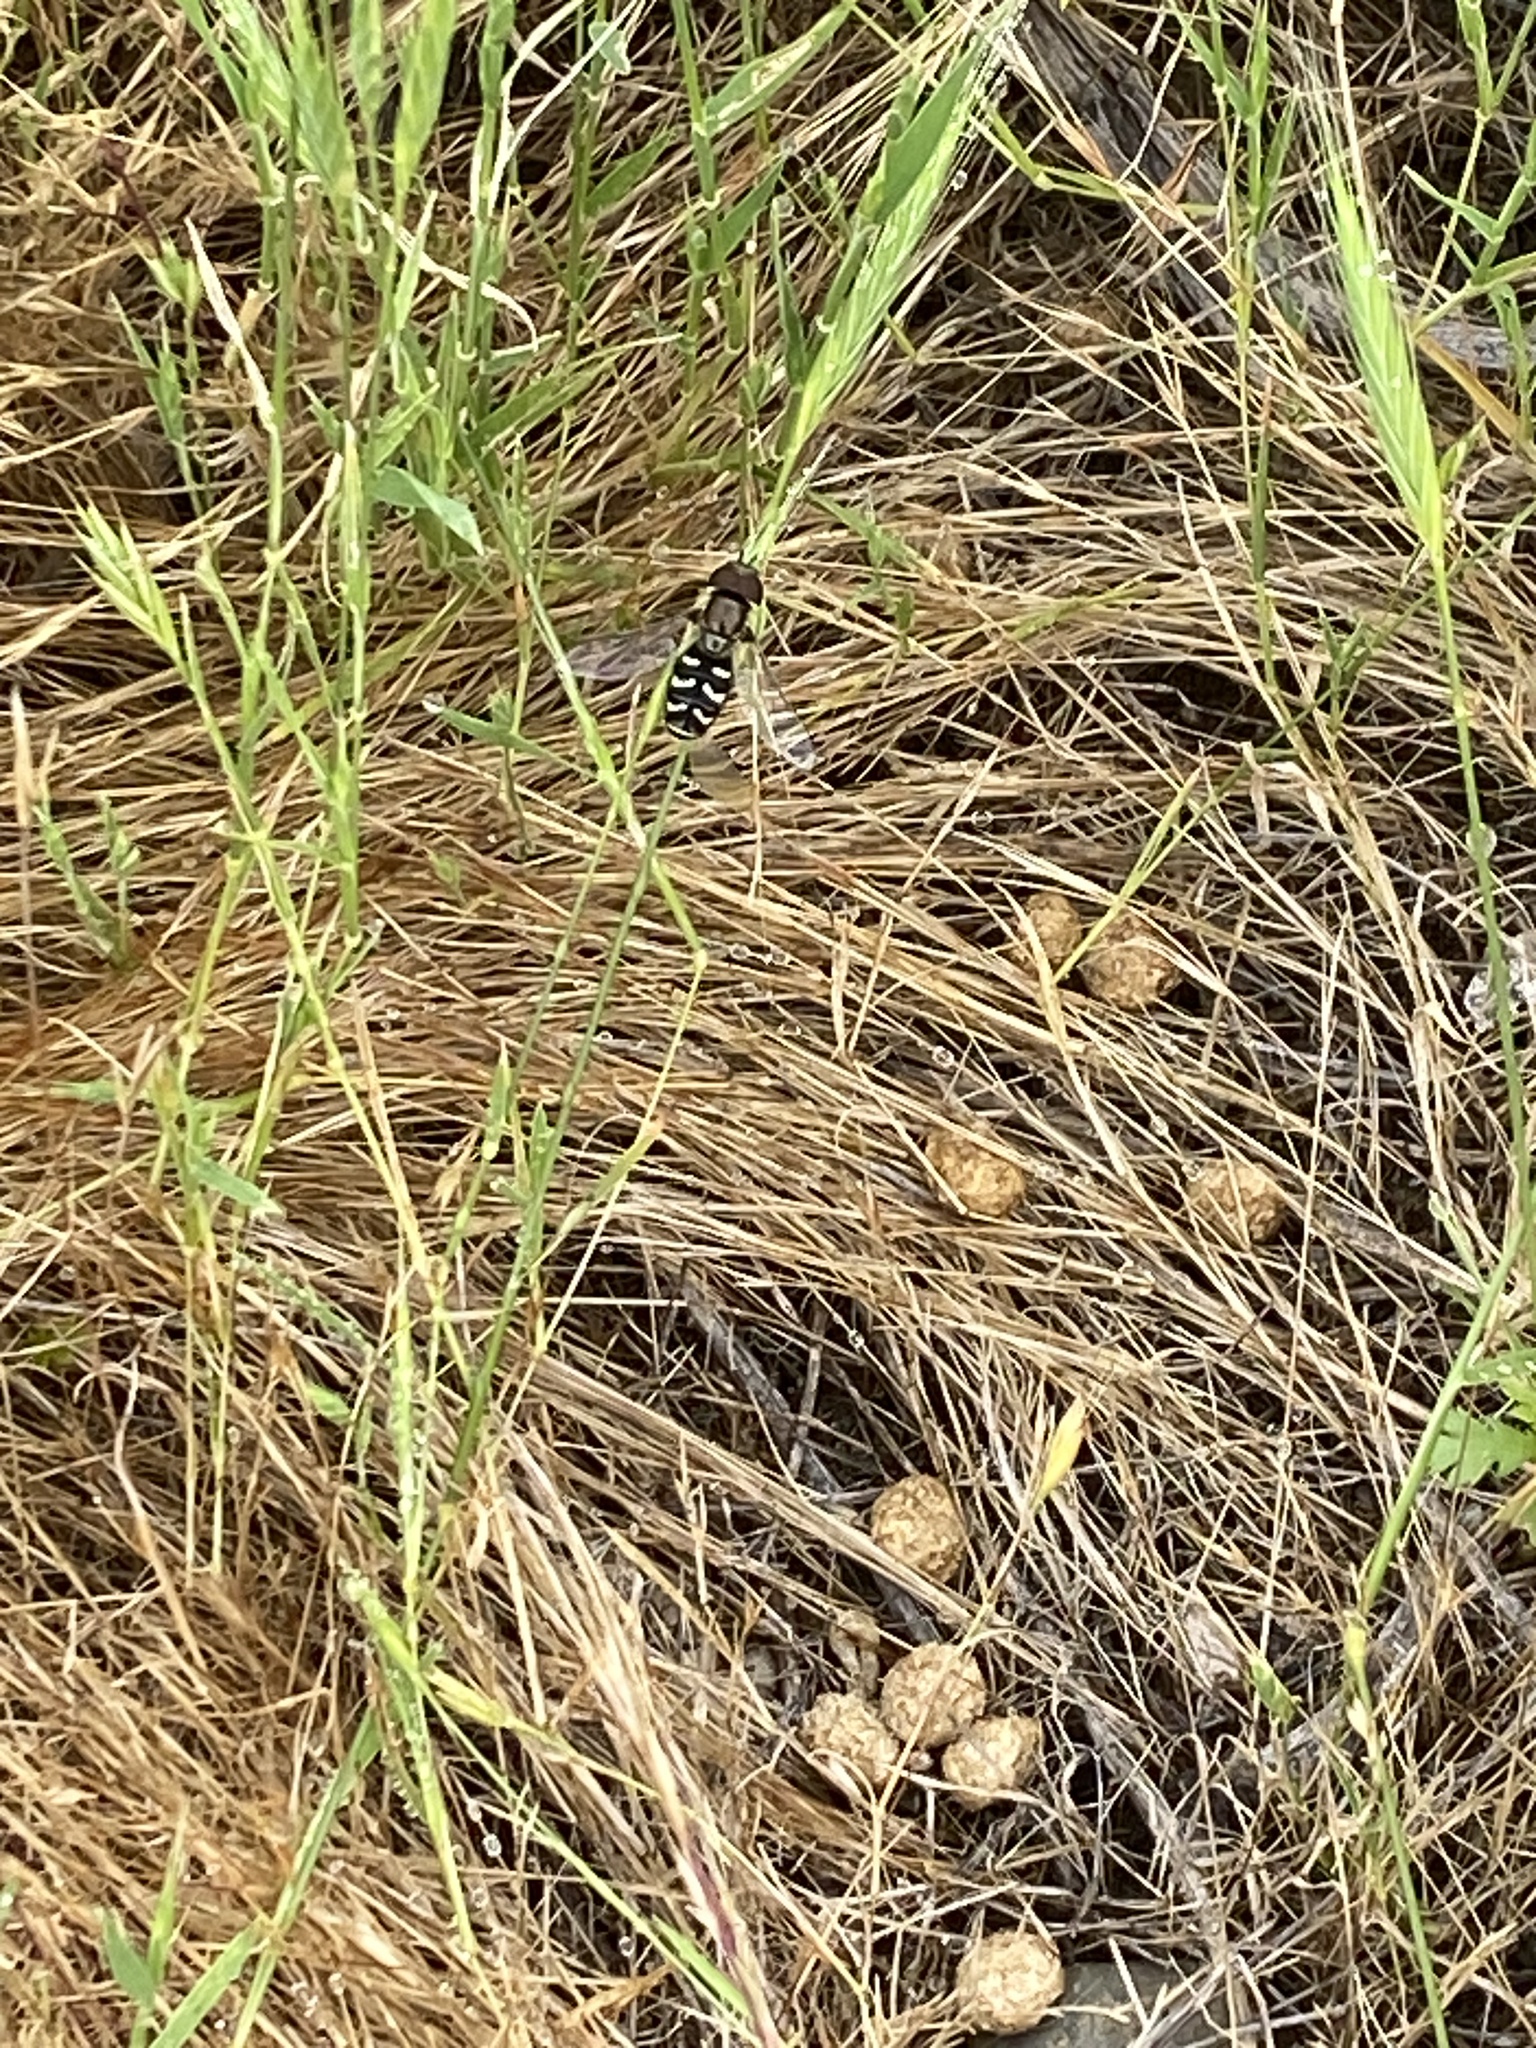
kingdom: Animalia
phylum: Arthropoda
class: Insecta
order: Diptera
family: Syrphidae
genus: Scaeva
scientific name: Scaeva affinis
